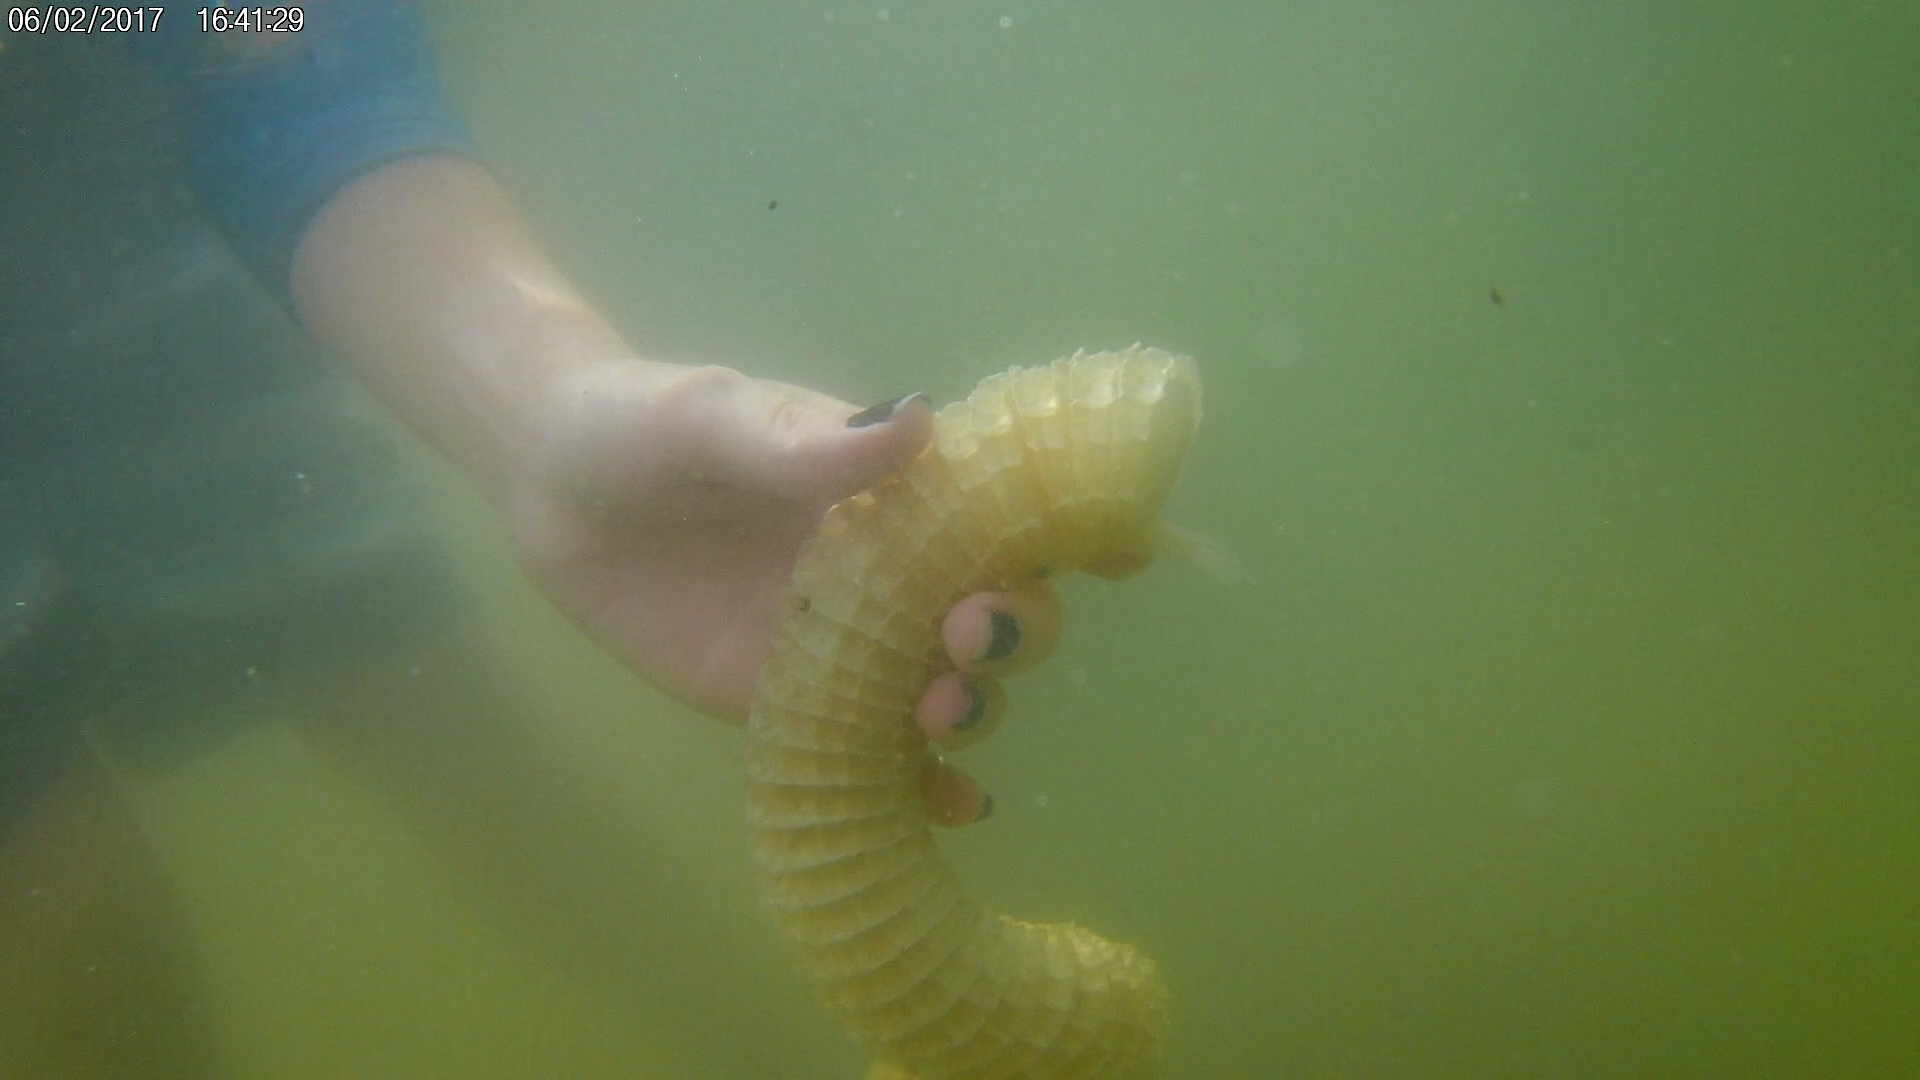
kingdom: Animalia
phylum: Mollusca
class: Gastropoda
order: Neogastropoda
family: Busyconidae
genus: Sinistrofulgur
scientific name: Sinistrofulgur sinistrum
